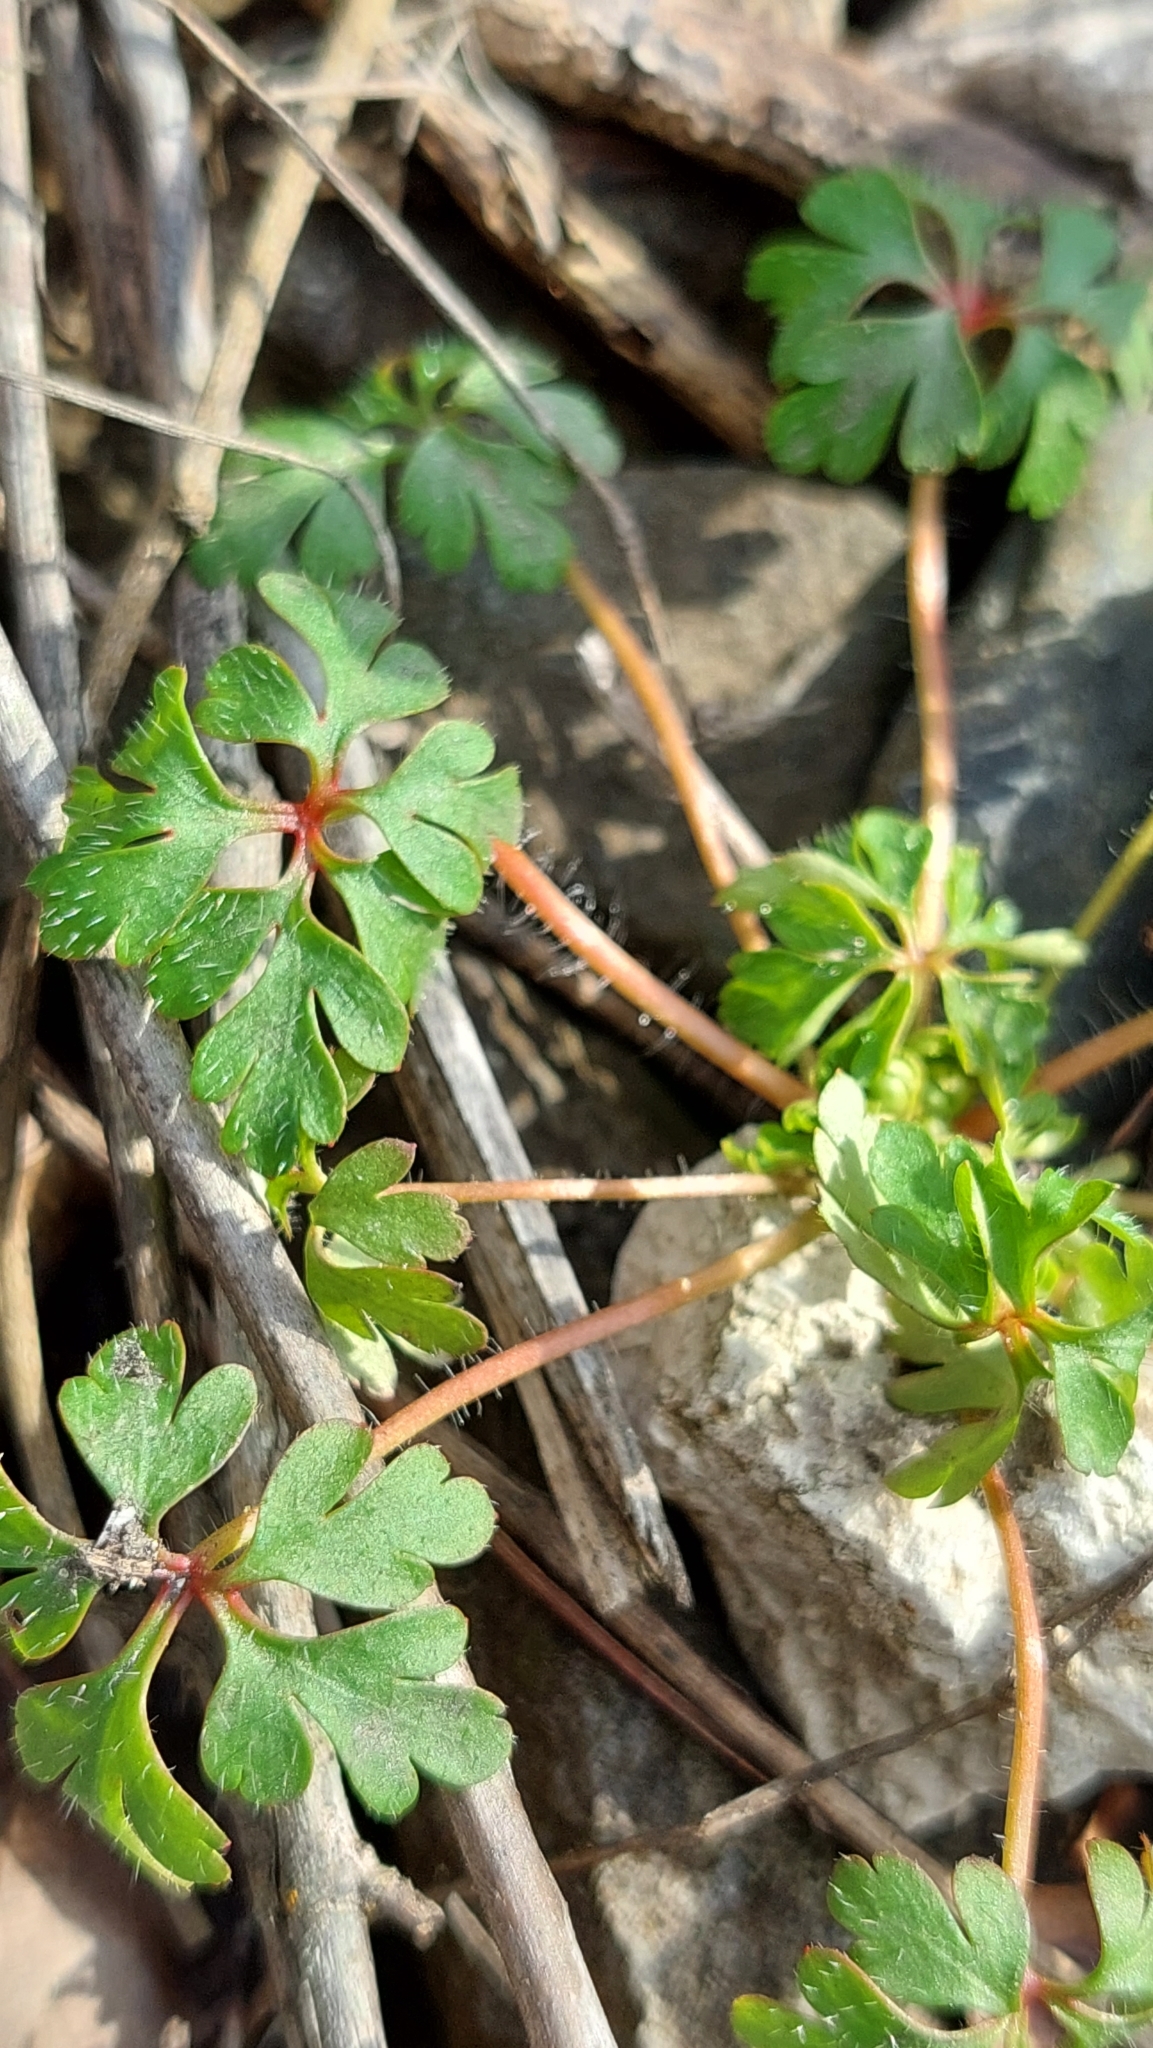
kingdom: Plantae
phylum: Tracheophyta
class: Magnoliopsida
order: Geraniales
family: Geraniaceae
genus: Geranium
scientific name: Geranium robertianum
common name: Herb-robert
